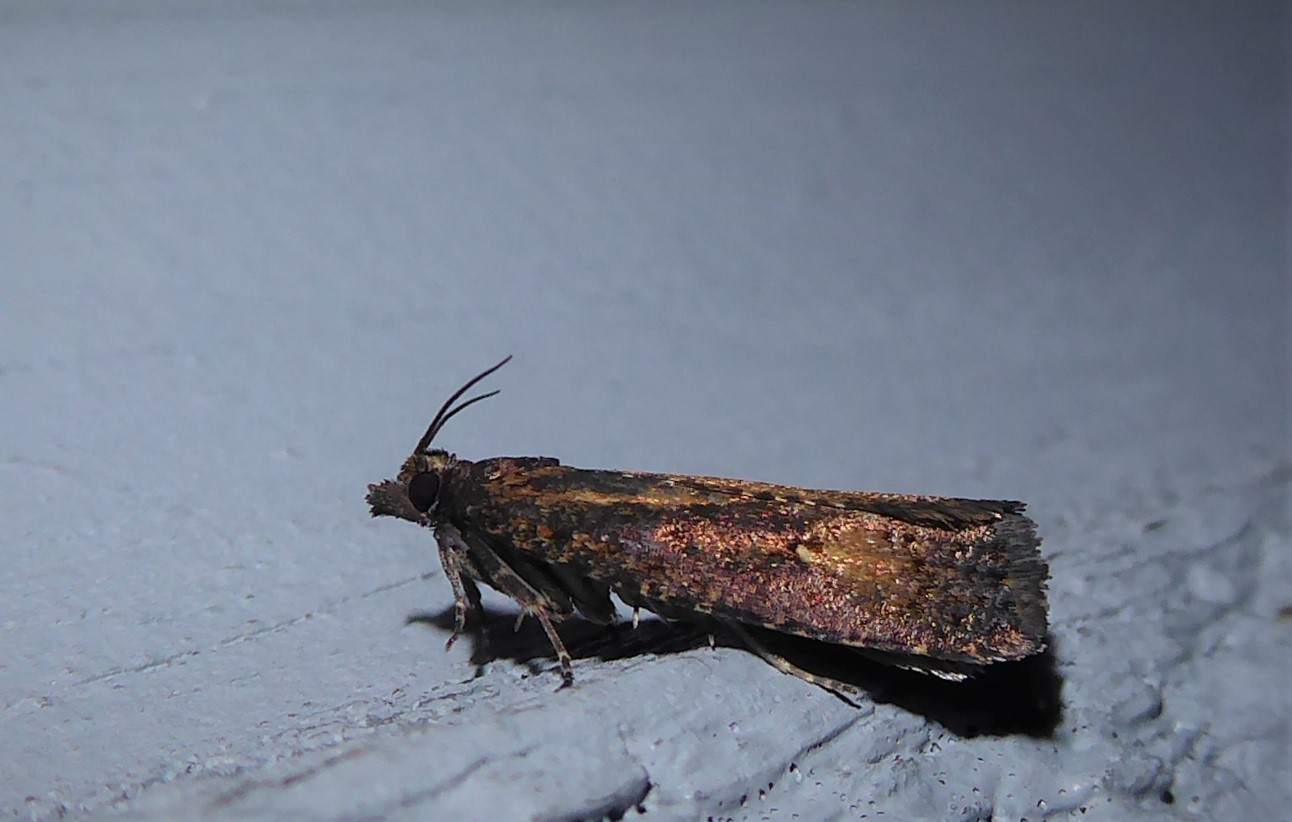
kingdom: Animalia
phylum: Arthropoda
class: Insecta
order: Lepidoptera
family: Tortricidae
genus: Cryptaspasma
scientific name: Cryptaspasma querula
